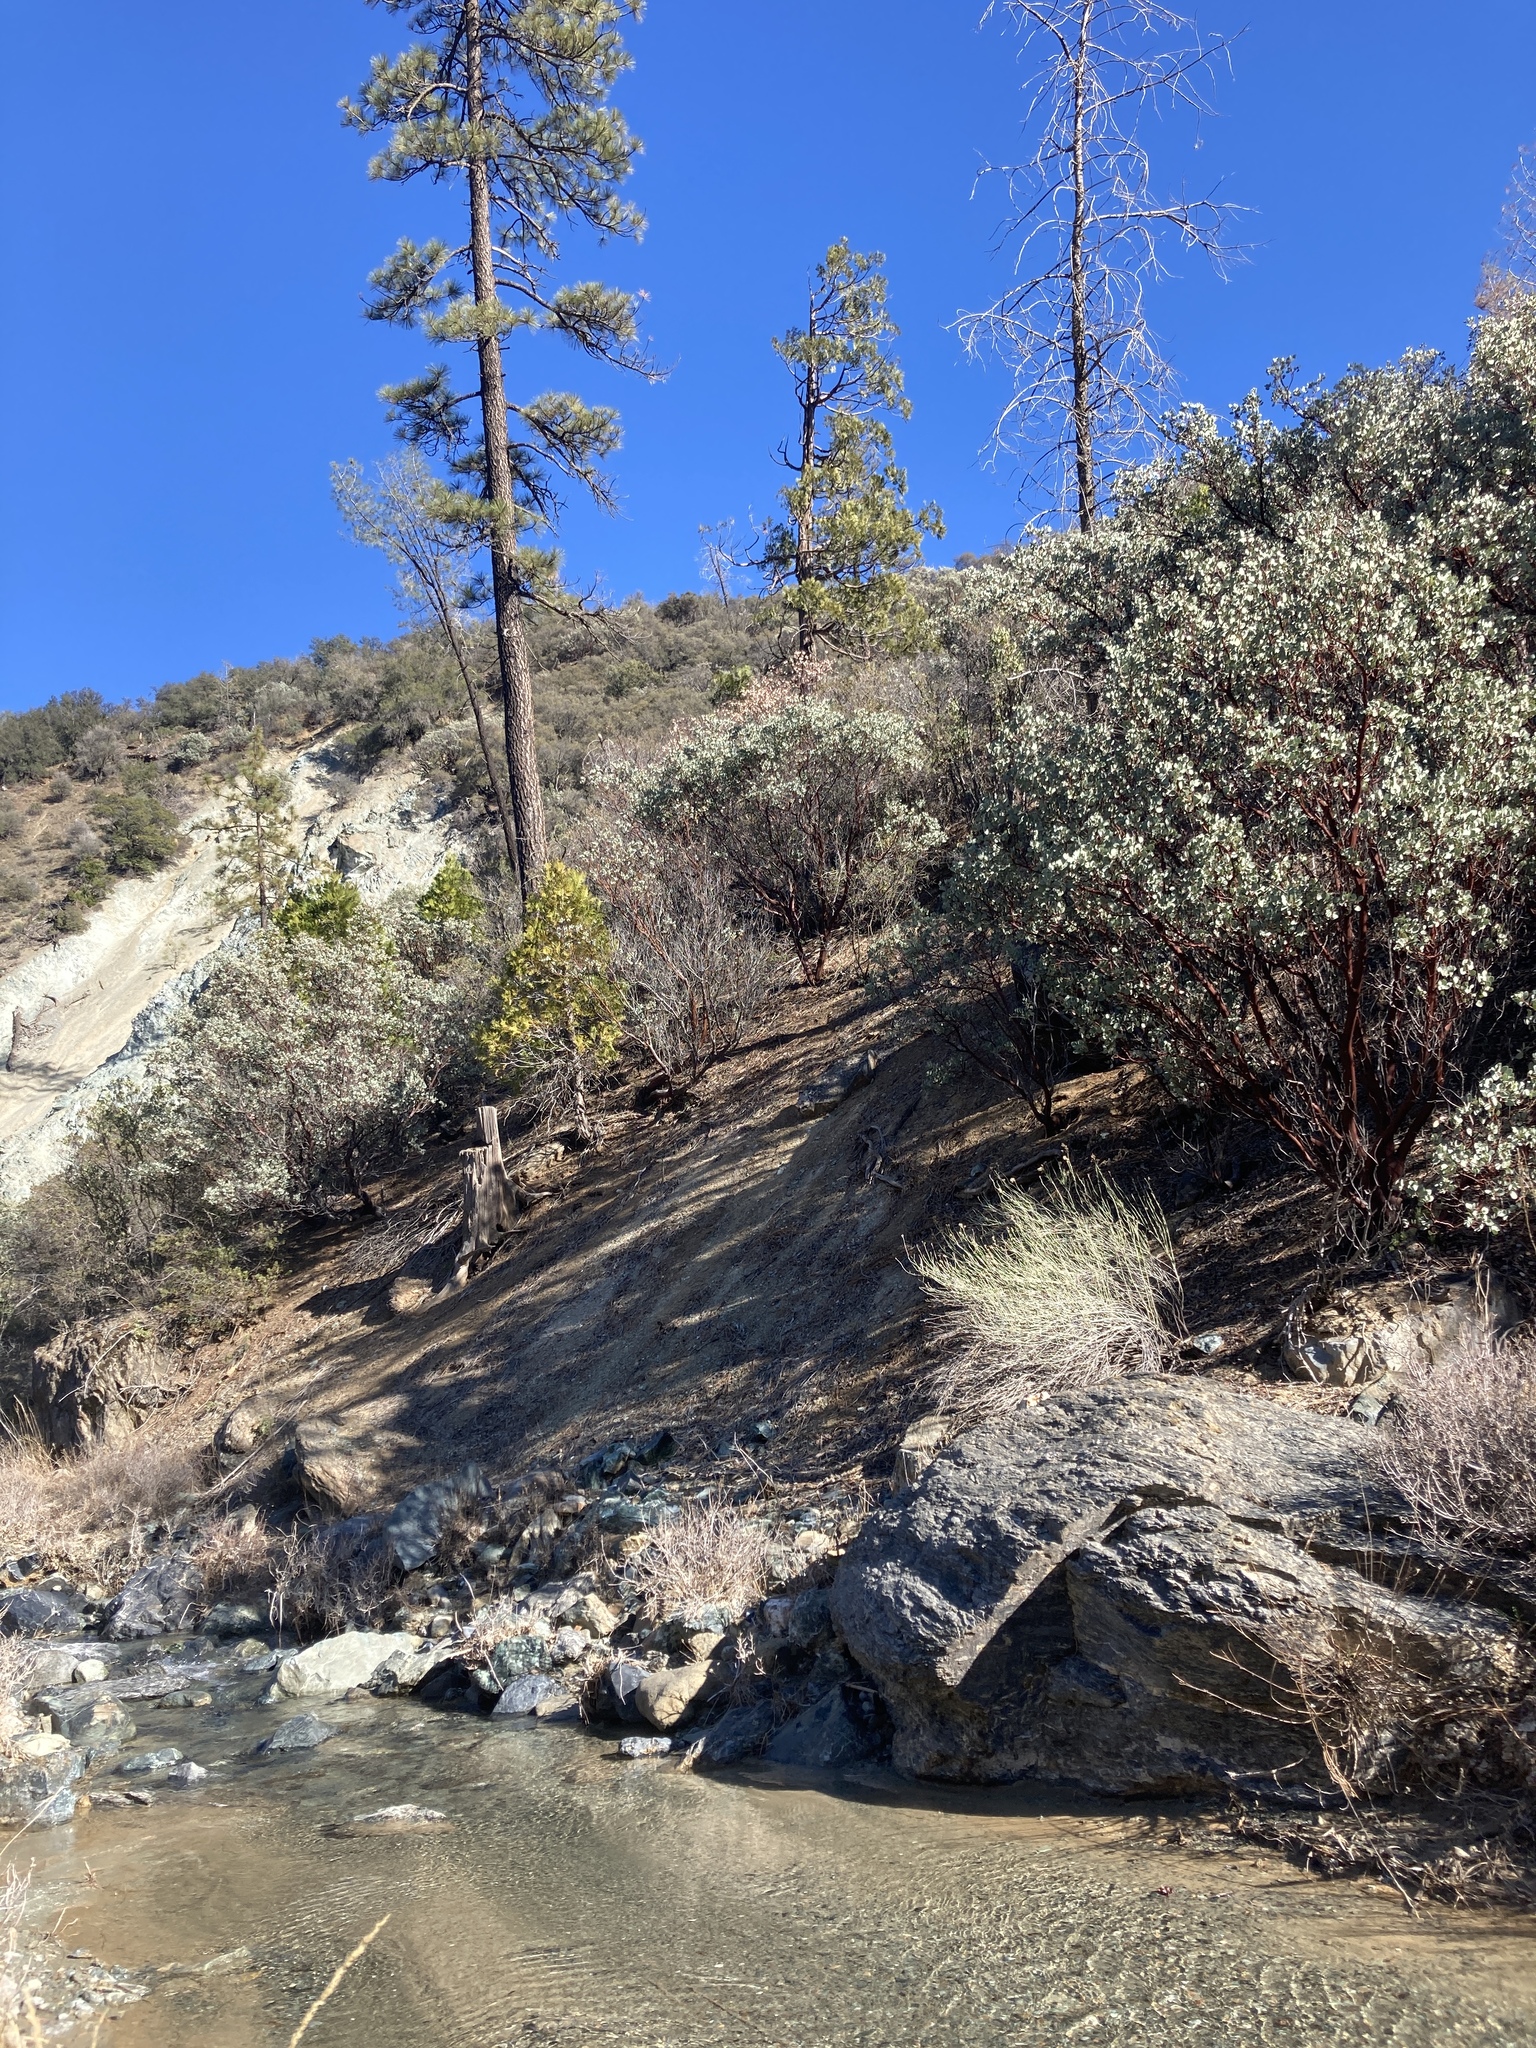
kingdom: Plantae
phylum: Tracheophyta
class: Magnoliopsida
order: Ericales
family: Ericaceae
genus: Arctostaphylos
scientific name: Arctostaphylos glauca
